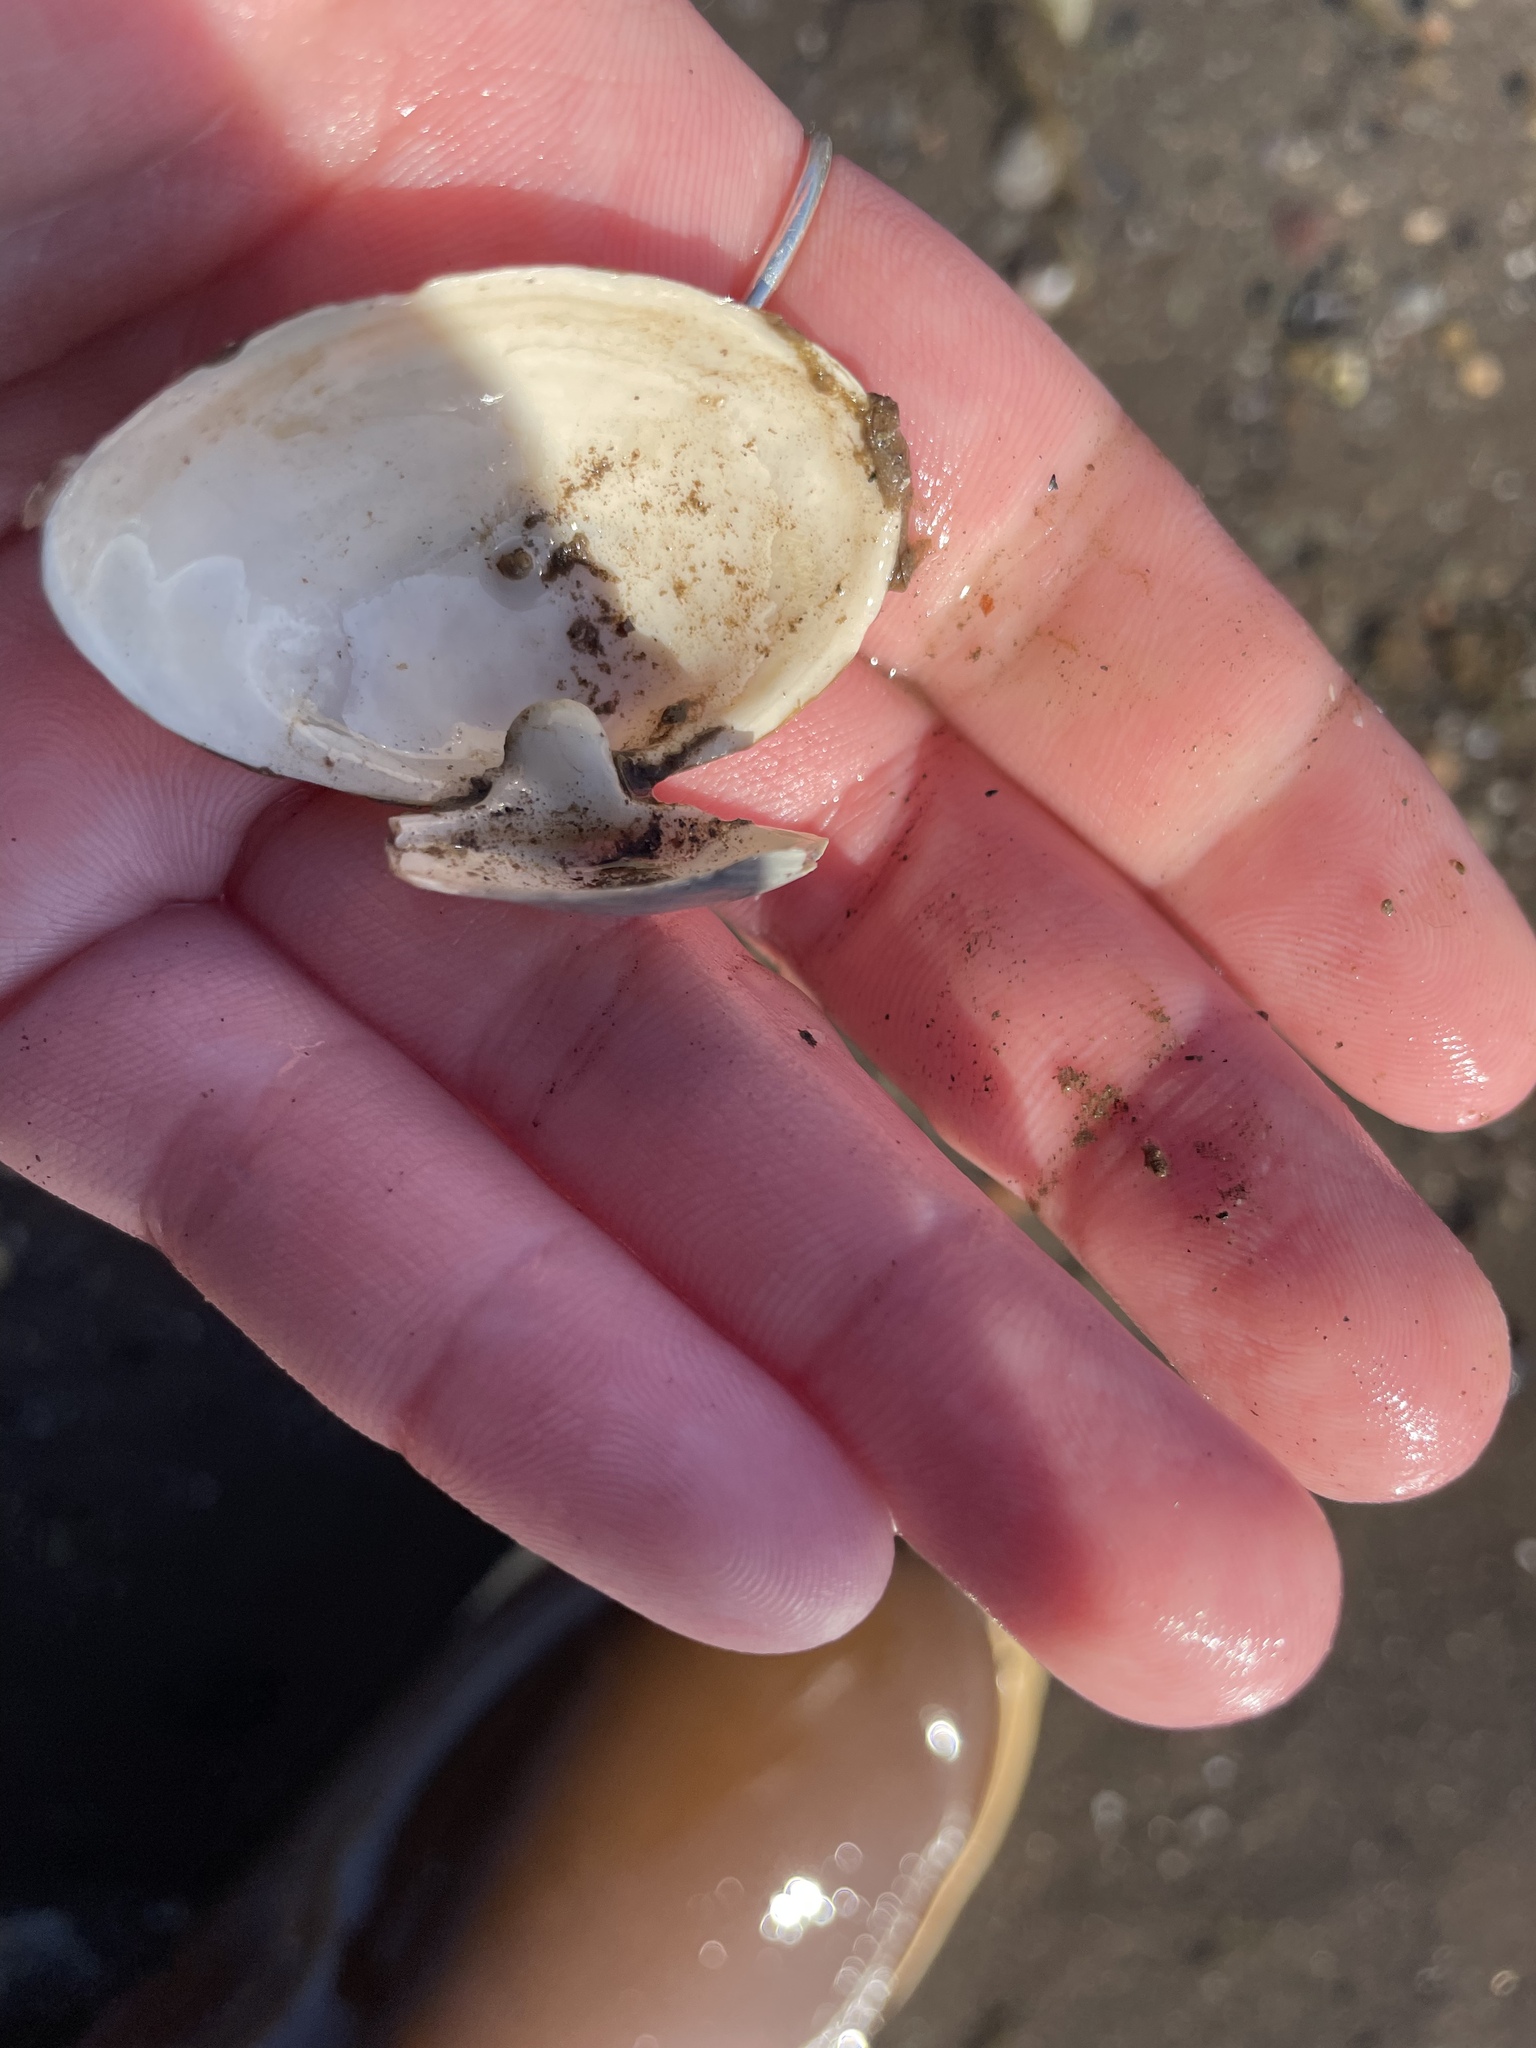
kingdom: Animalia
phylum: Mollusca
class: Bivalvia
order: Myida
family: Myidae
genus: Mya
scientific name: Mya arenaria
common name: Soft-shelled clam
